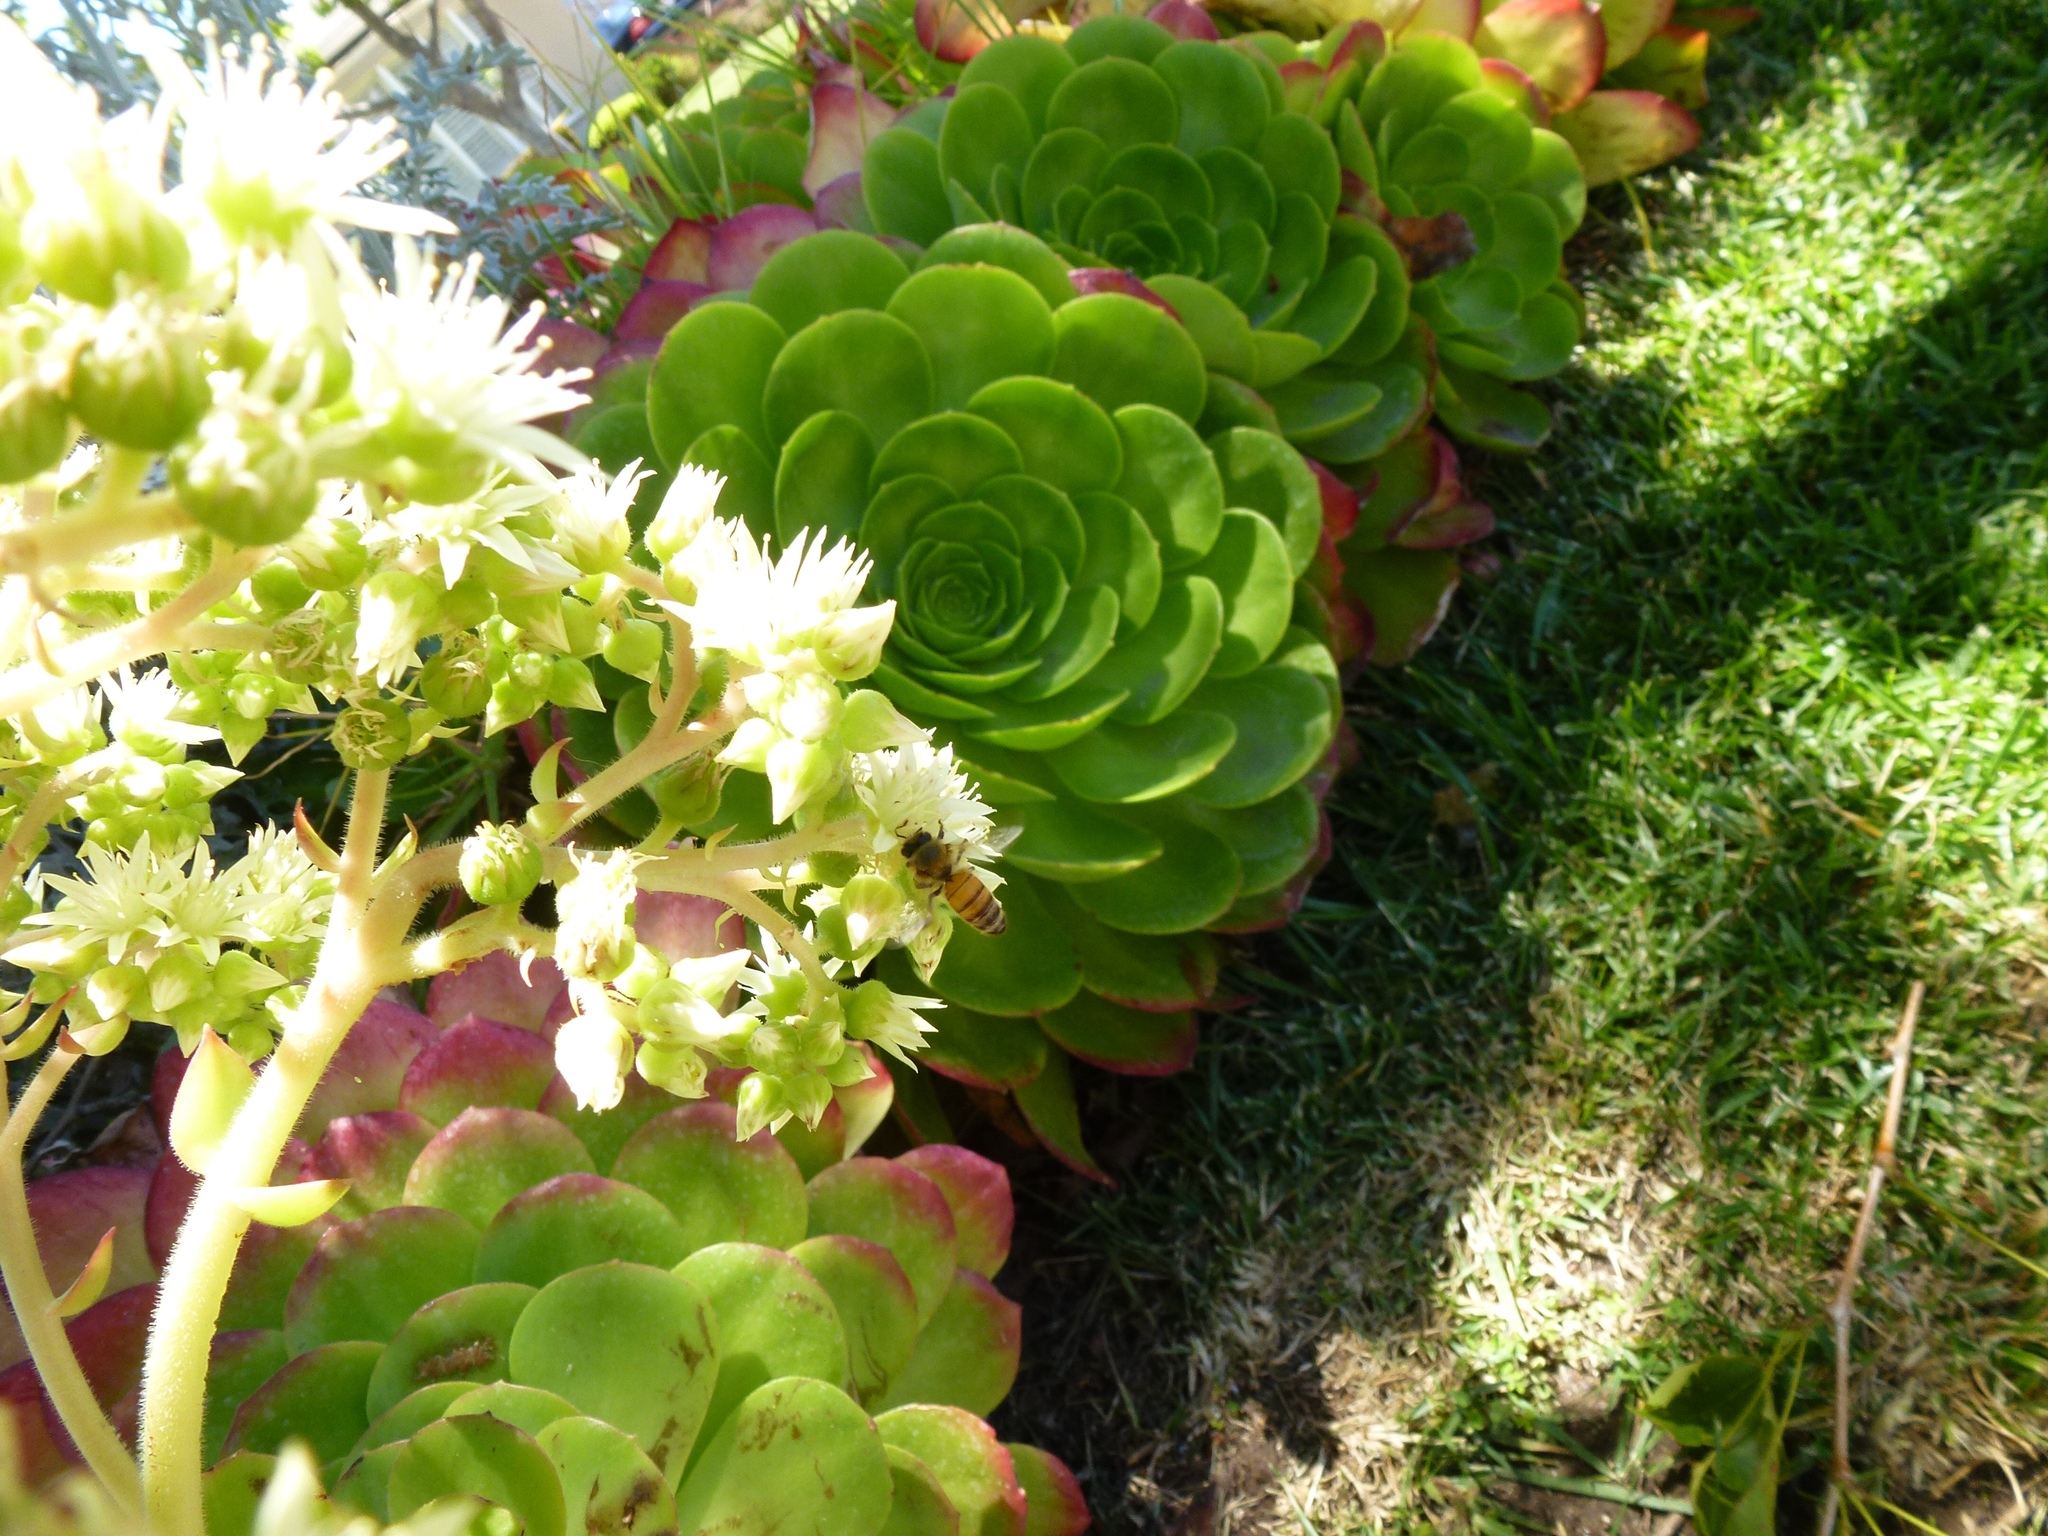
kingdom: Animalia
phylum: Arthropoda
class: Insecta
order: Hymenoptera
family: Apidae
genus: Apis
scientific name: Apis mellifera
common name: Honey bee
